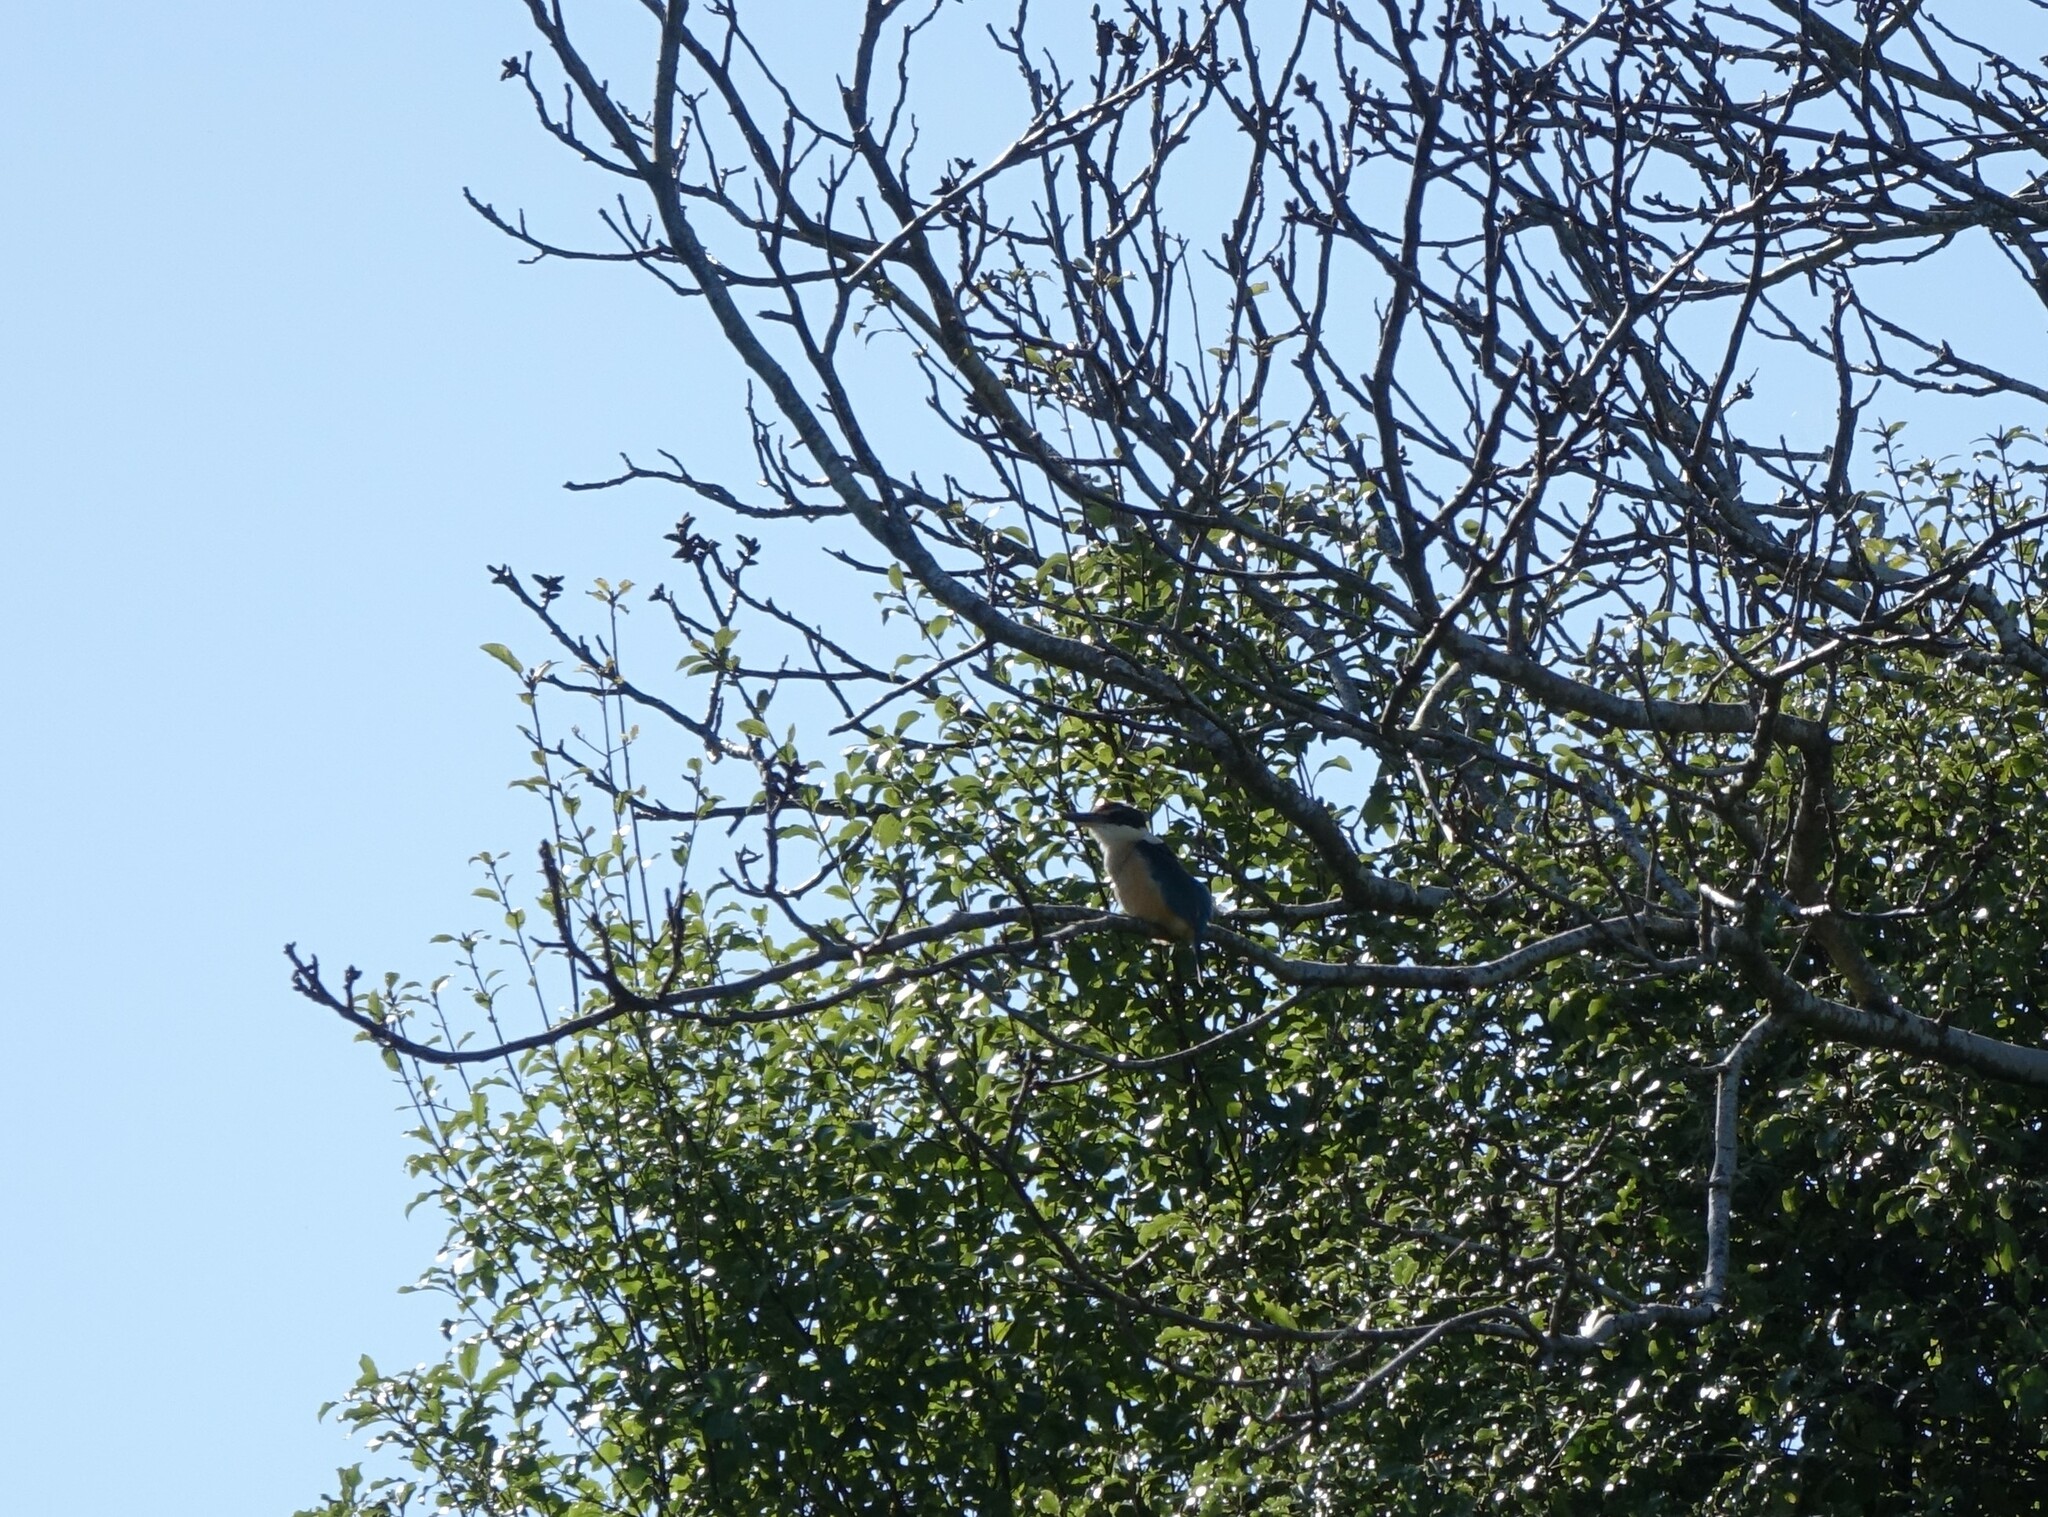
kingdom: Animalia
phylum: Chordata
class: Aves
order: Coraciiformes
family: Alcedinidae
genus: Todiramphus
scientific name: Todiramphus sanctus
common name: Sacred kingfisher
